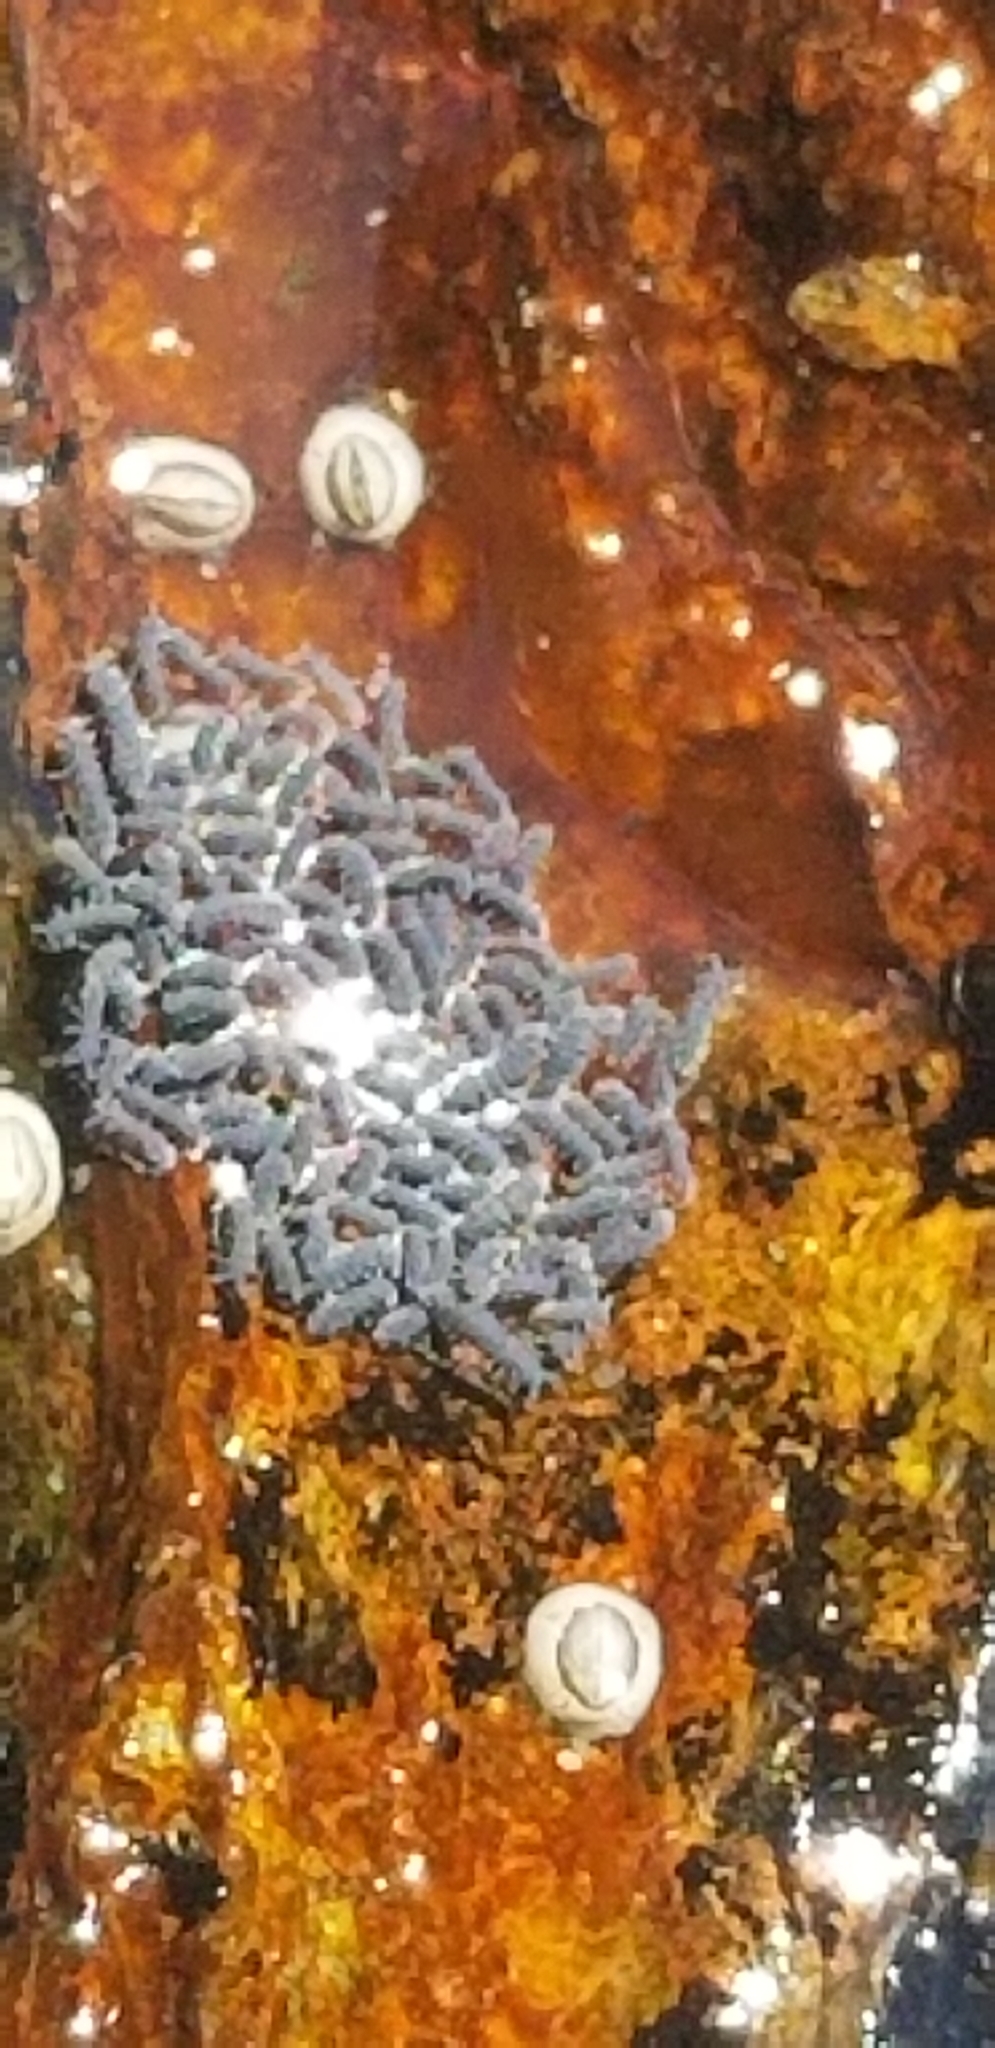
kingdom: Animalia
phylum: Arthropoda
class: Collembola
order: Poduromorpha
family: Neanuridae
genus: Anurida
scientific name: Anurida maritima
